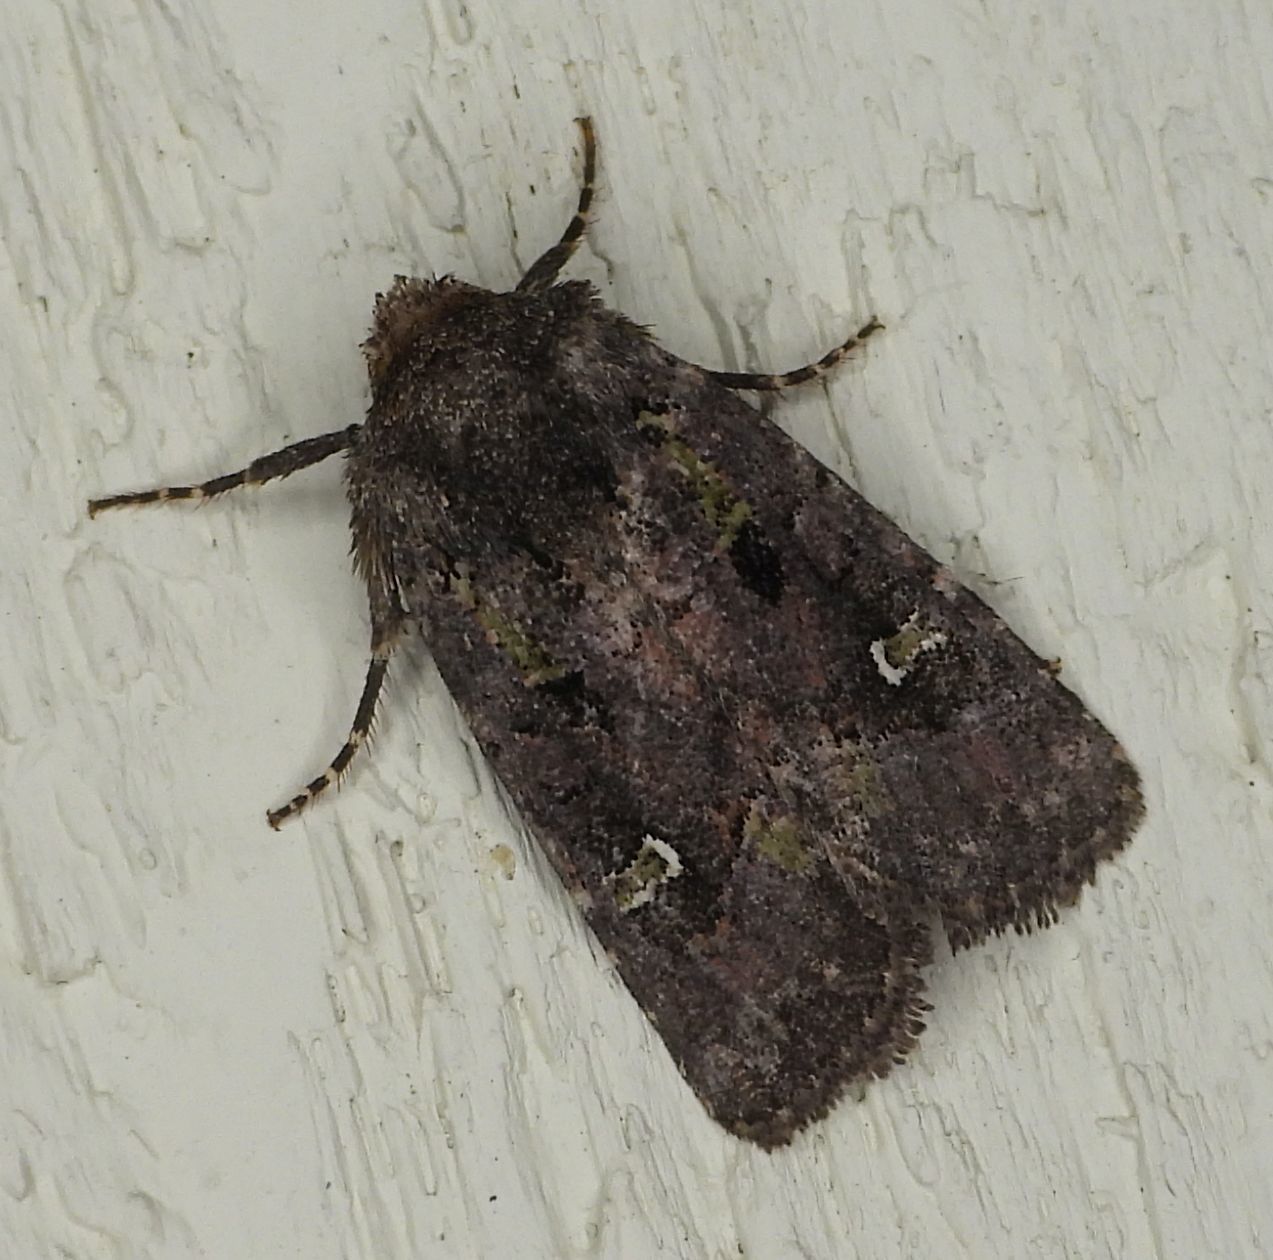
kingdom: Animalia
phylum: Arthropoda
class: Insecta
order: Lepidoptera
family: Noctuidae
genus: Lacinipolia
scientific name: Lacinipolia renigera
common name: Kidney-spotted minor
